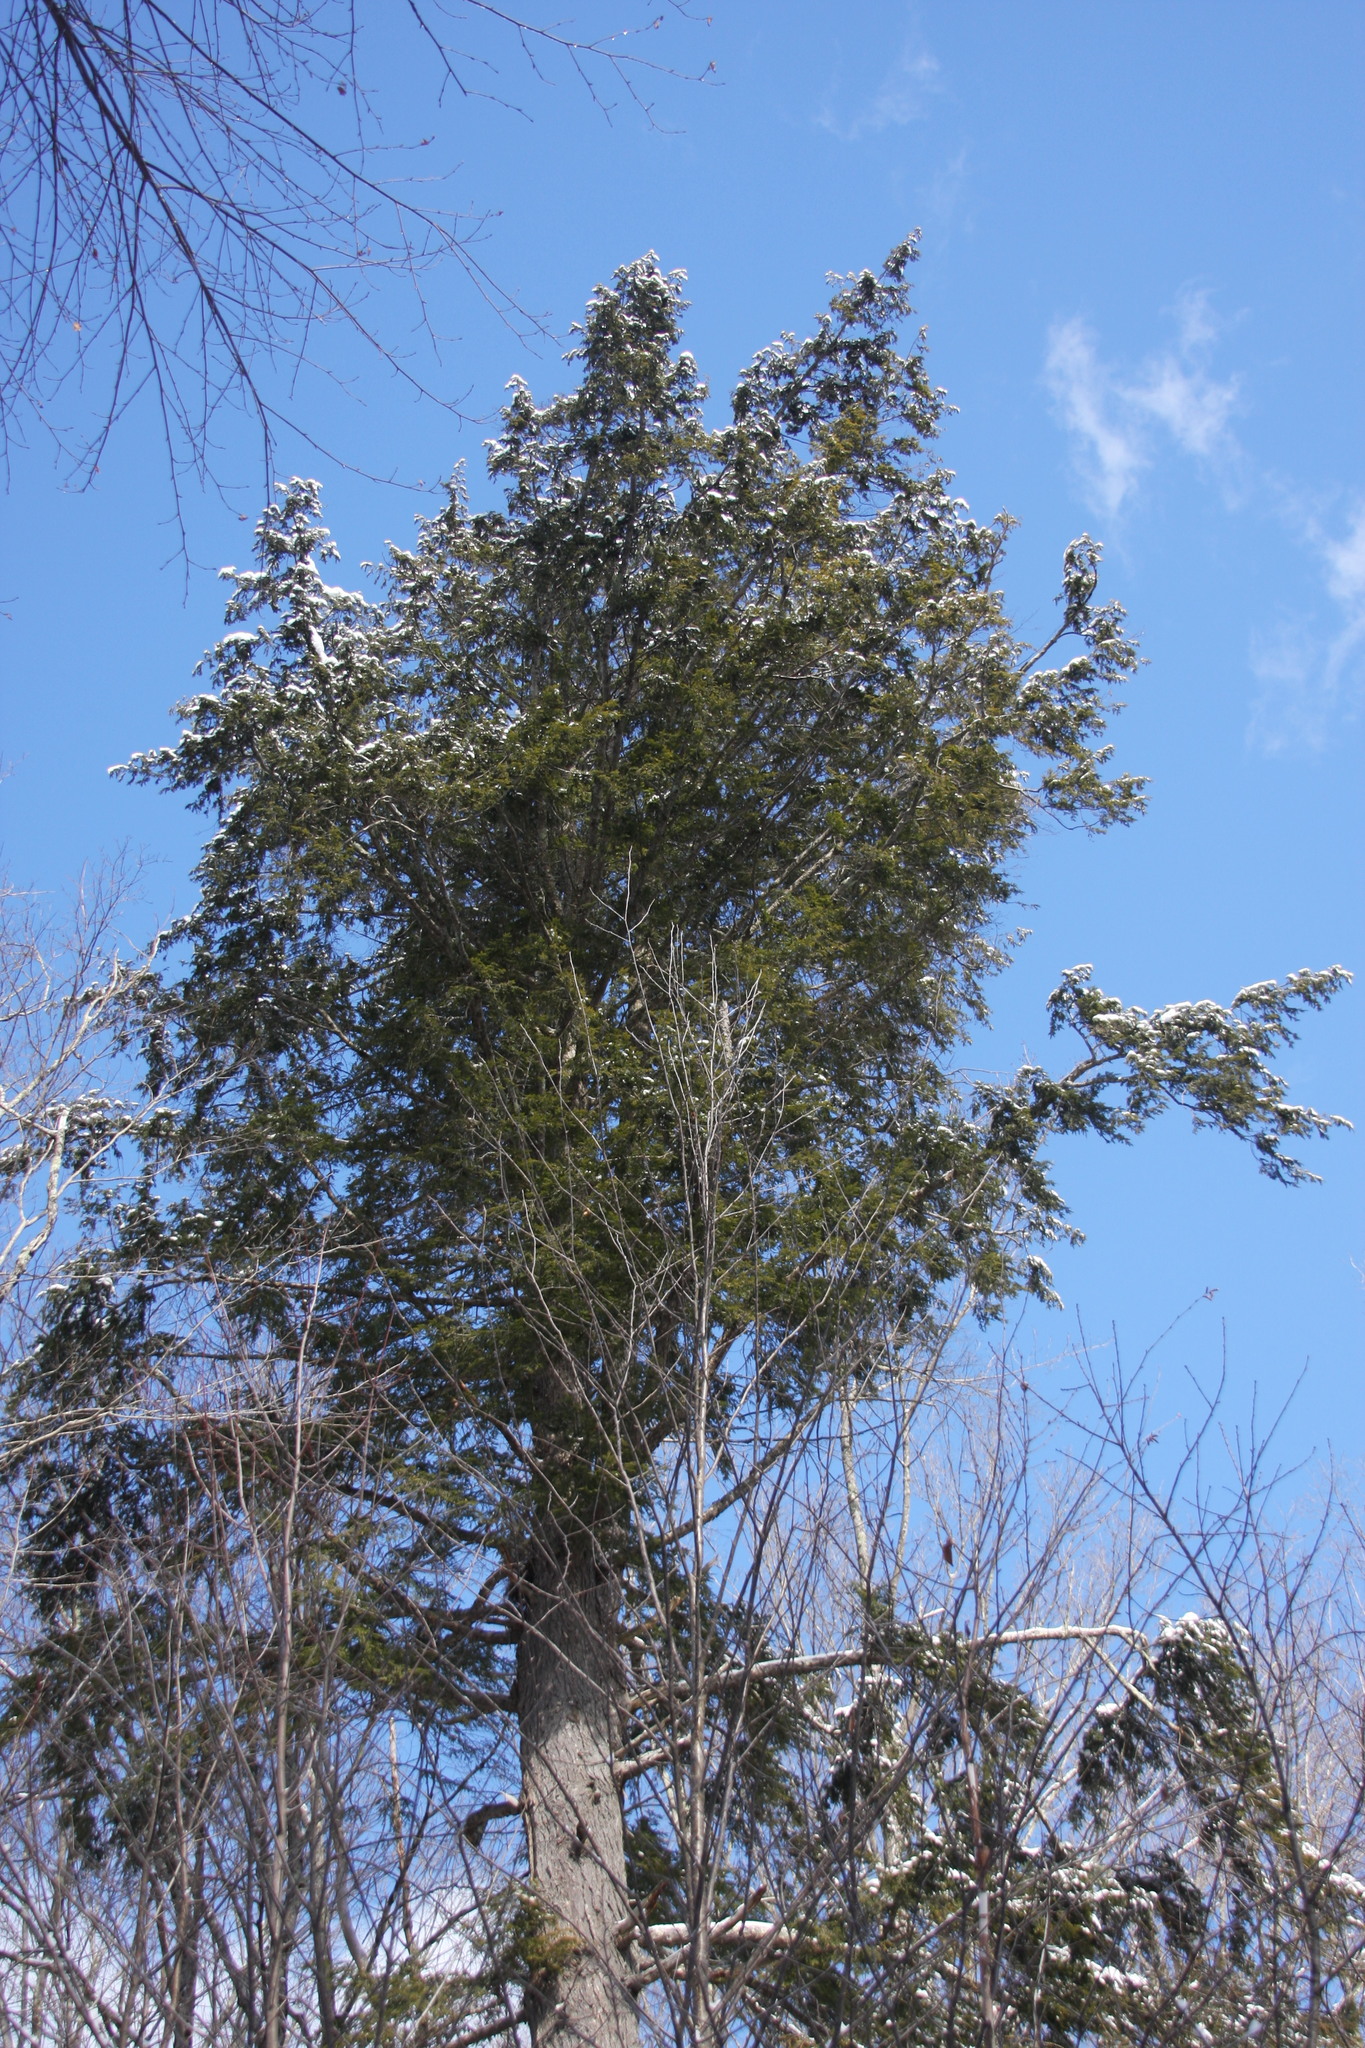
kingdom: Plantae
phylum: Tracheophyta
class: Pinopsida
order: Pinales
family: Pinaceae
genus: Tsuga
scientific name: Tsuga canadensis
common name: Eastern hemlock
